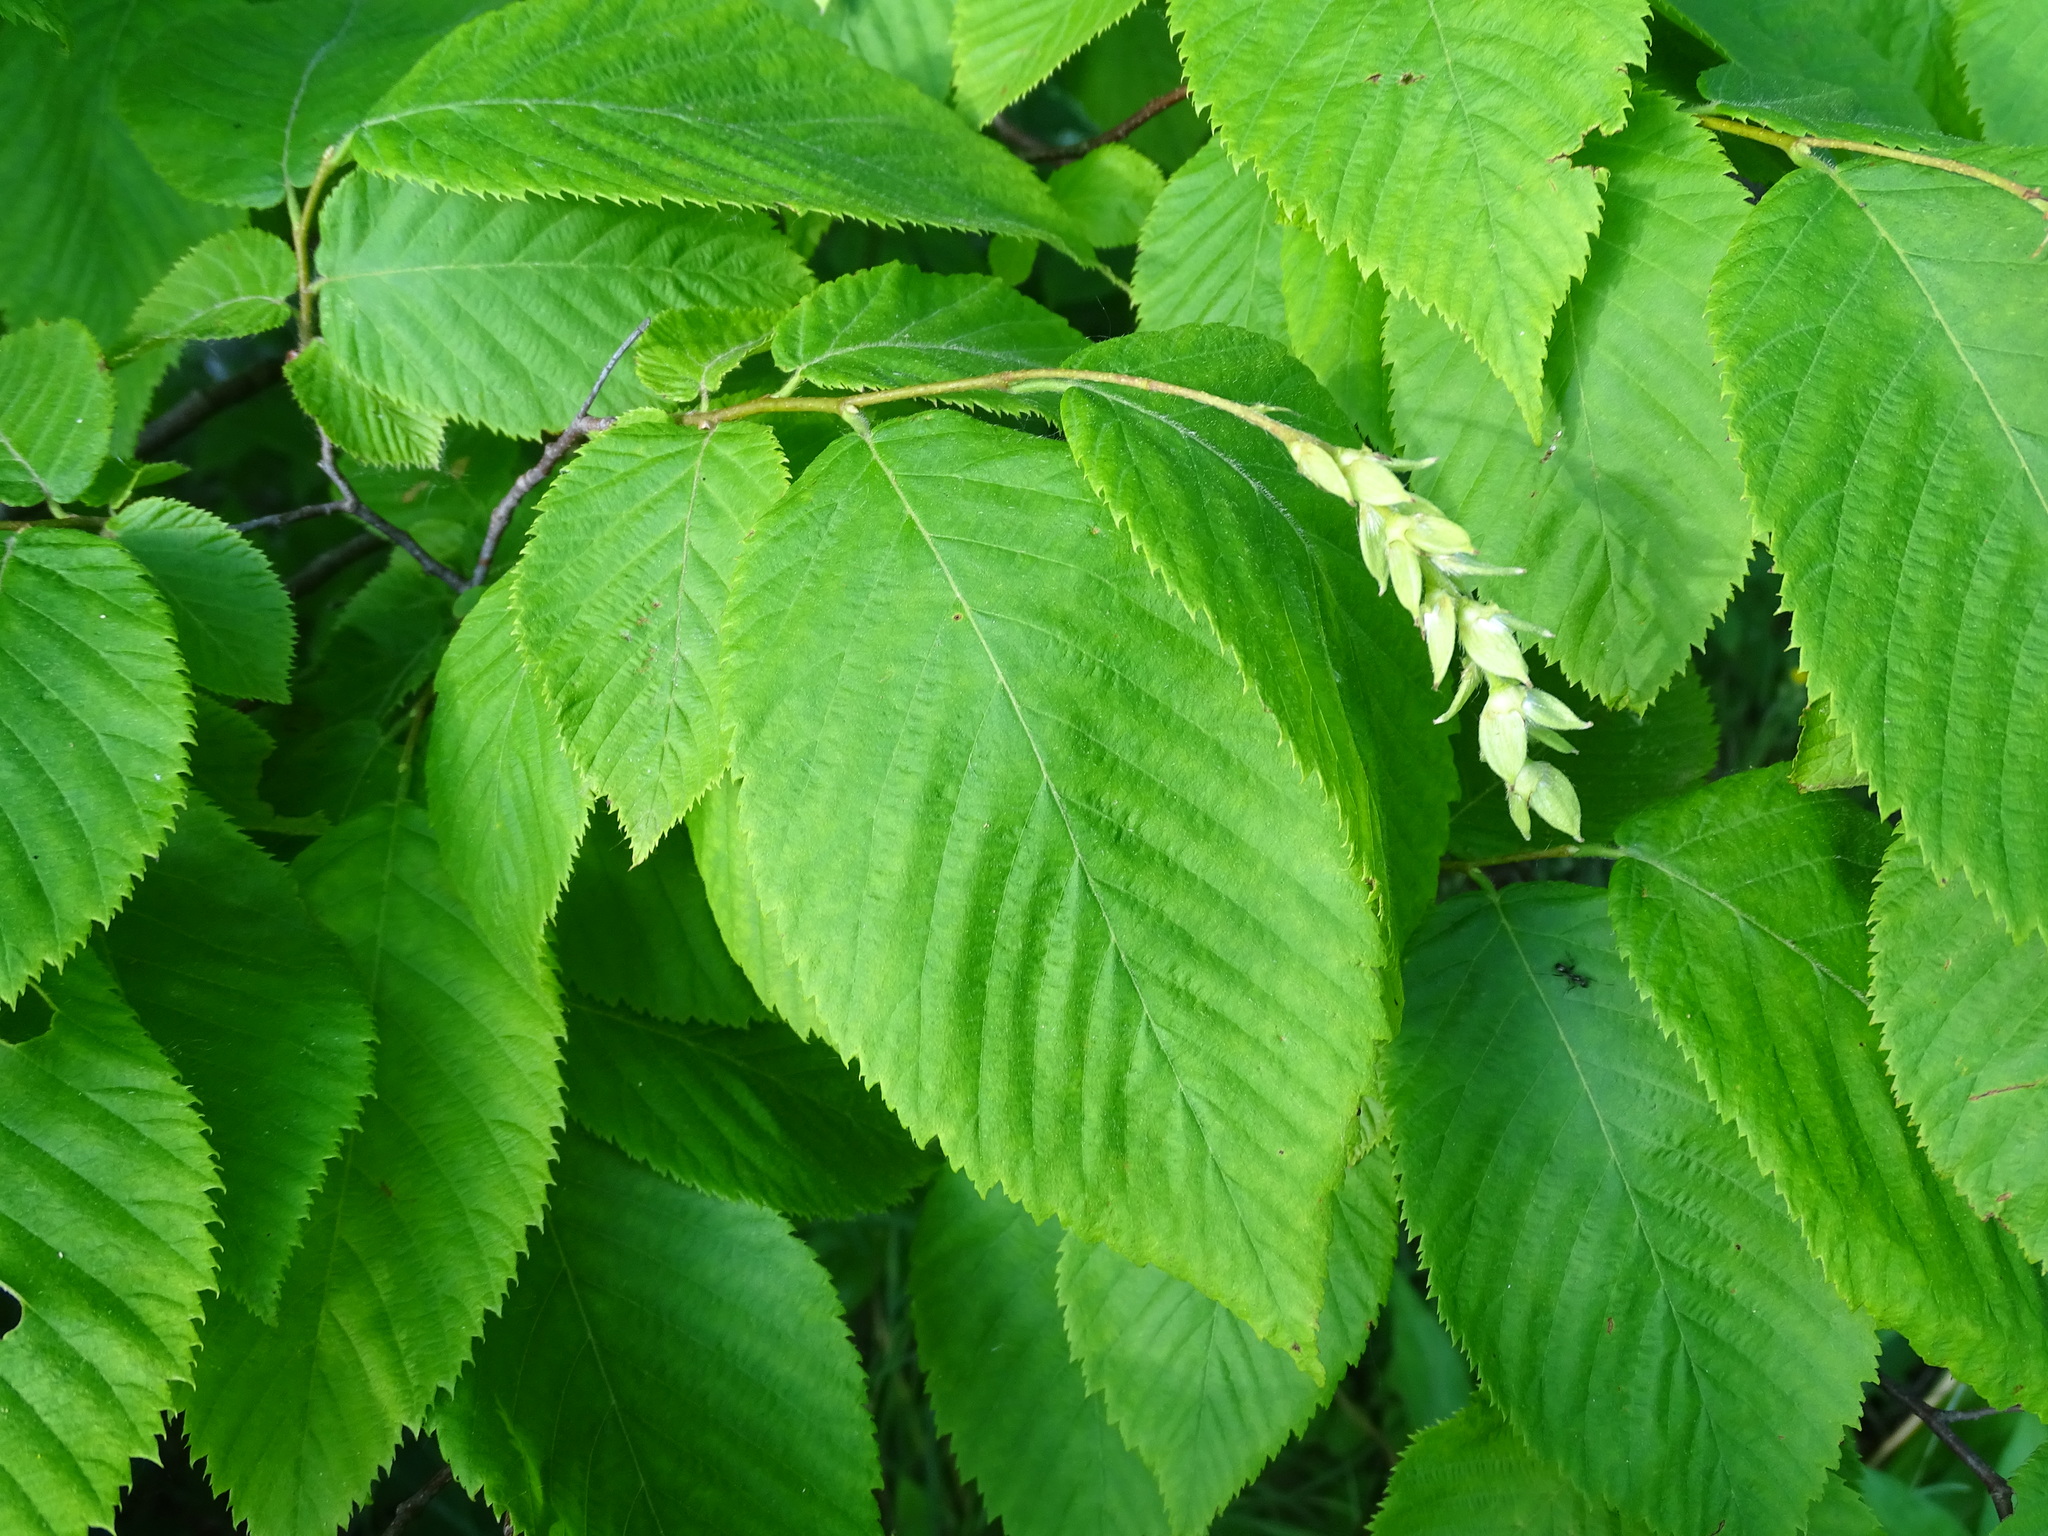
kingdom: Plantae
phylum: Tracheophyta
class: Magnoliopsida
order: Fagales
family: Betulaceae
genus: Ostrya
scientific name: Ostrya virginiana
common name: Ironwood
